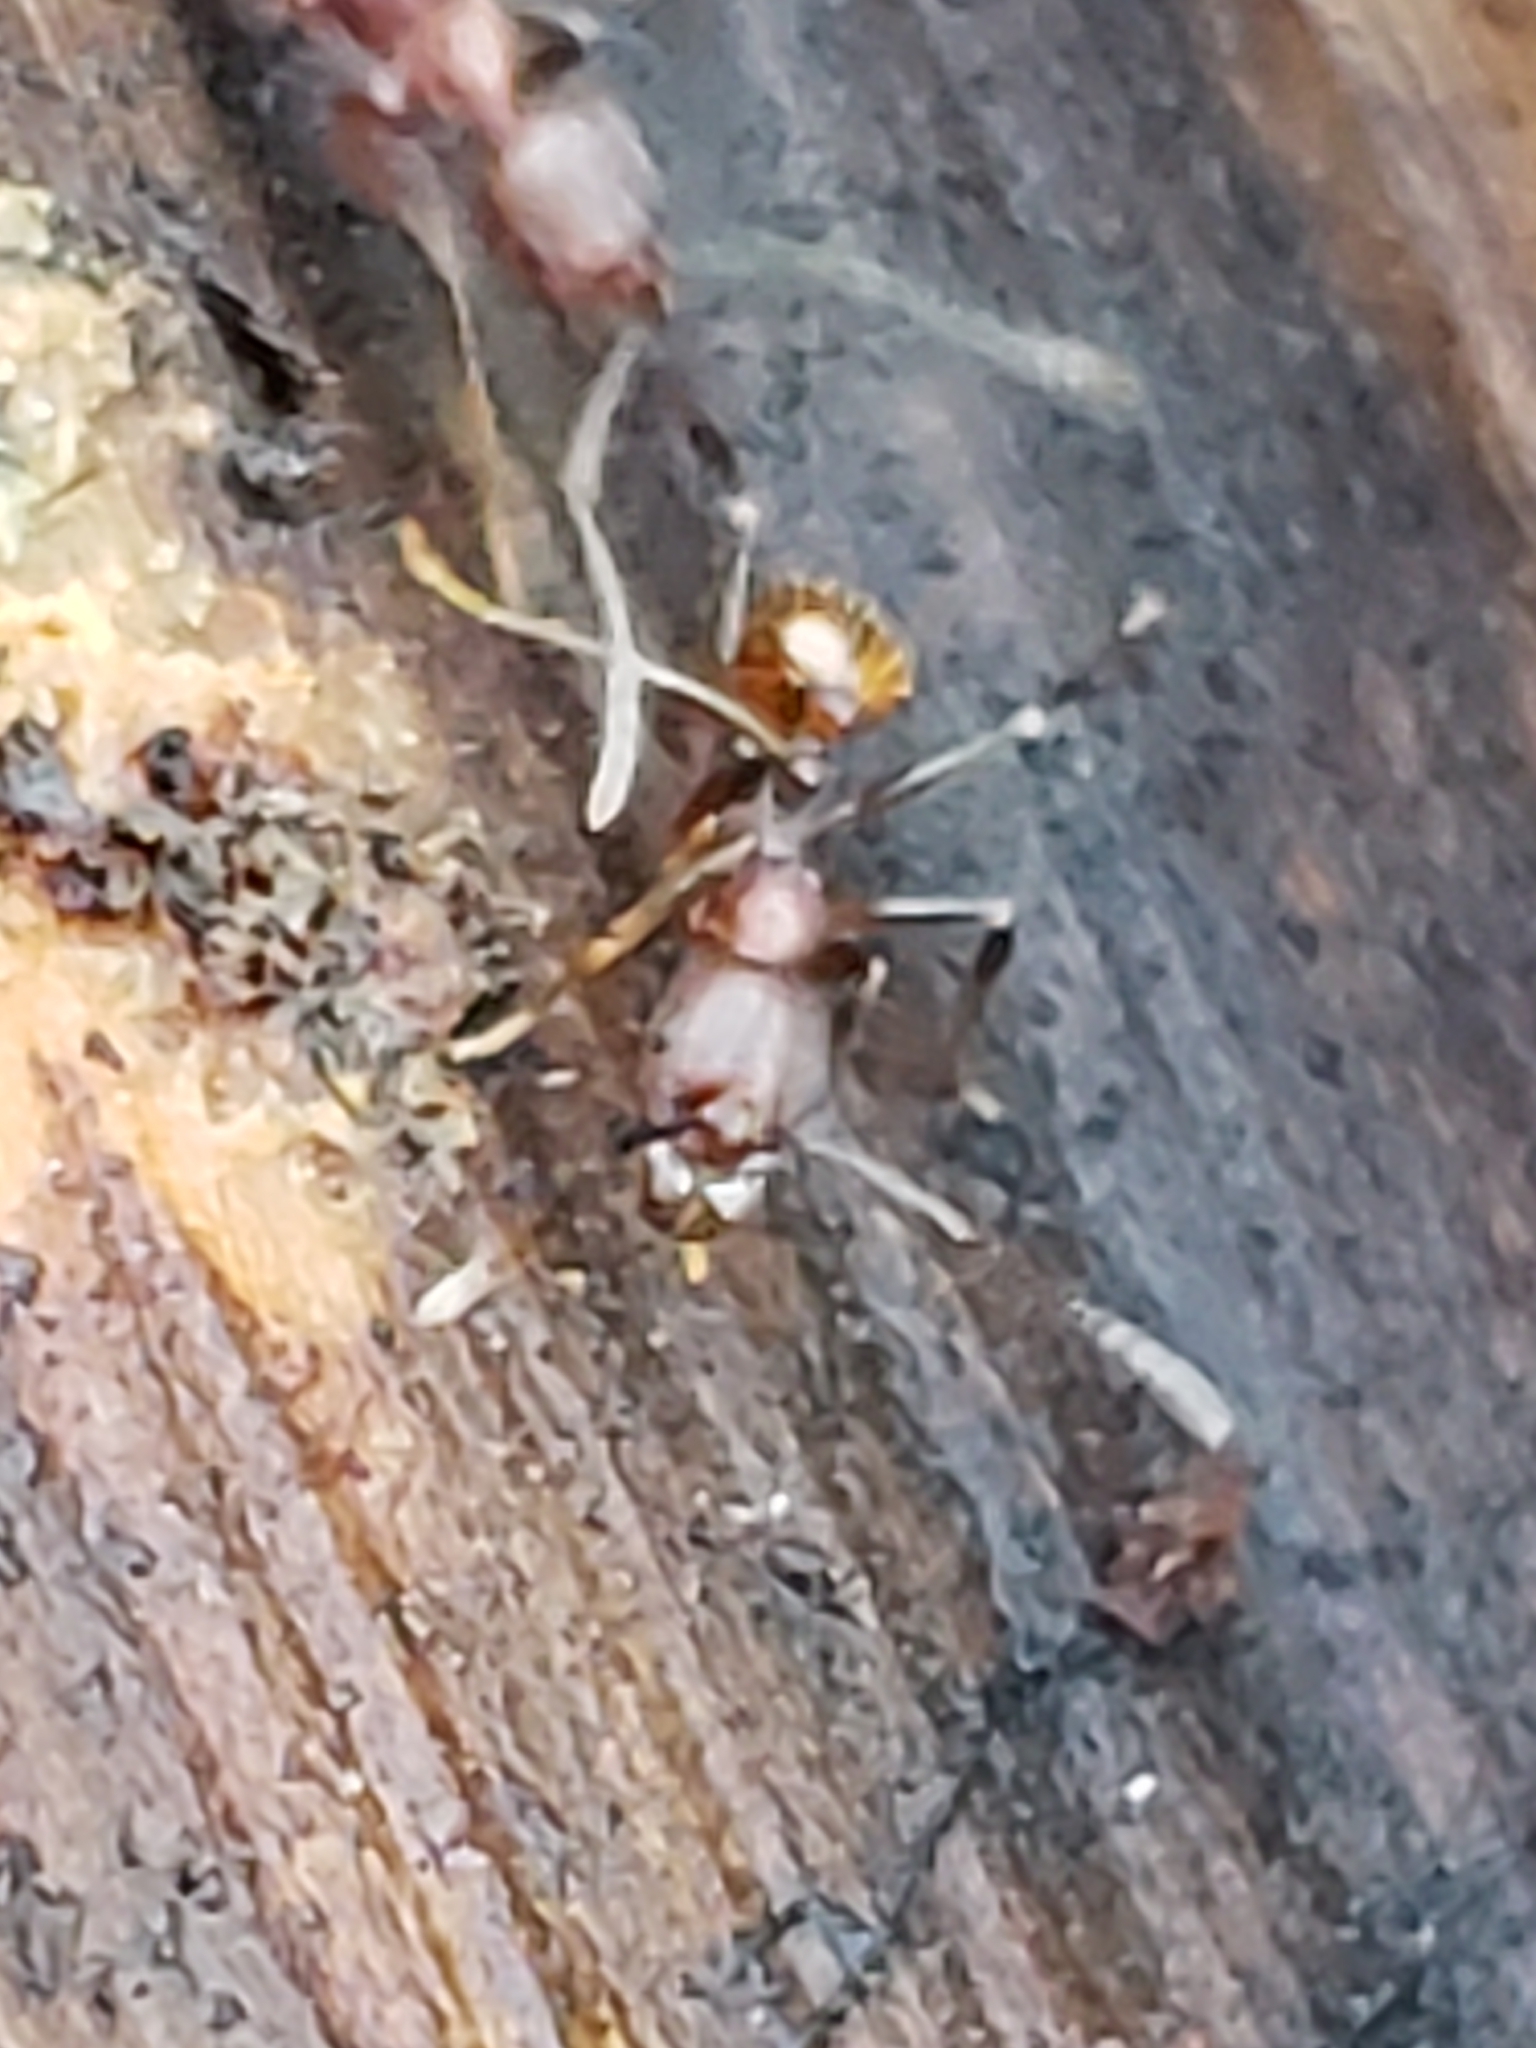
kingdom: Animalia
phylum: Arthropoda
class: Insecta
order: Hymenoptera
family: Formicidae
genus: Aphaenogaster
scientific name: Aphaenogaster fulva
